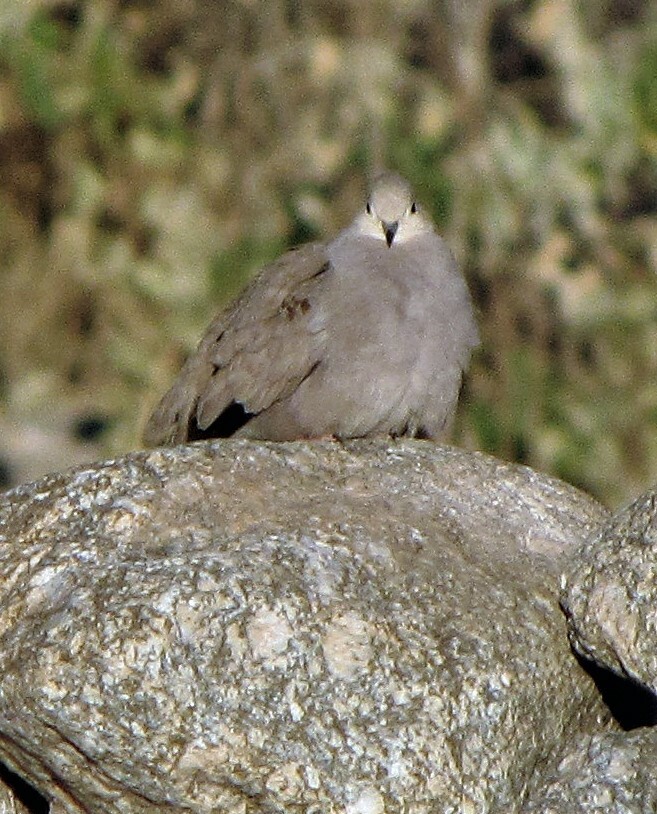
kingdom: Animalia
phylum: Chordata
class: Aves
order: Columbiformes
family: Columbidae
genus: Metriopelia
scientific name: Metriopelia aymara
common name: Golden-spotted ground dove
